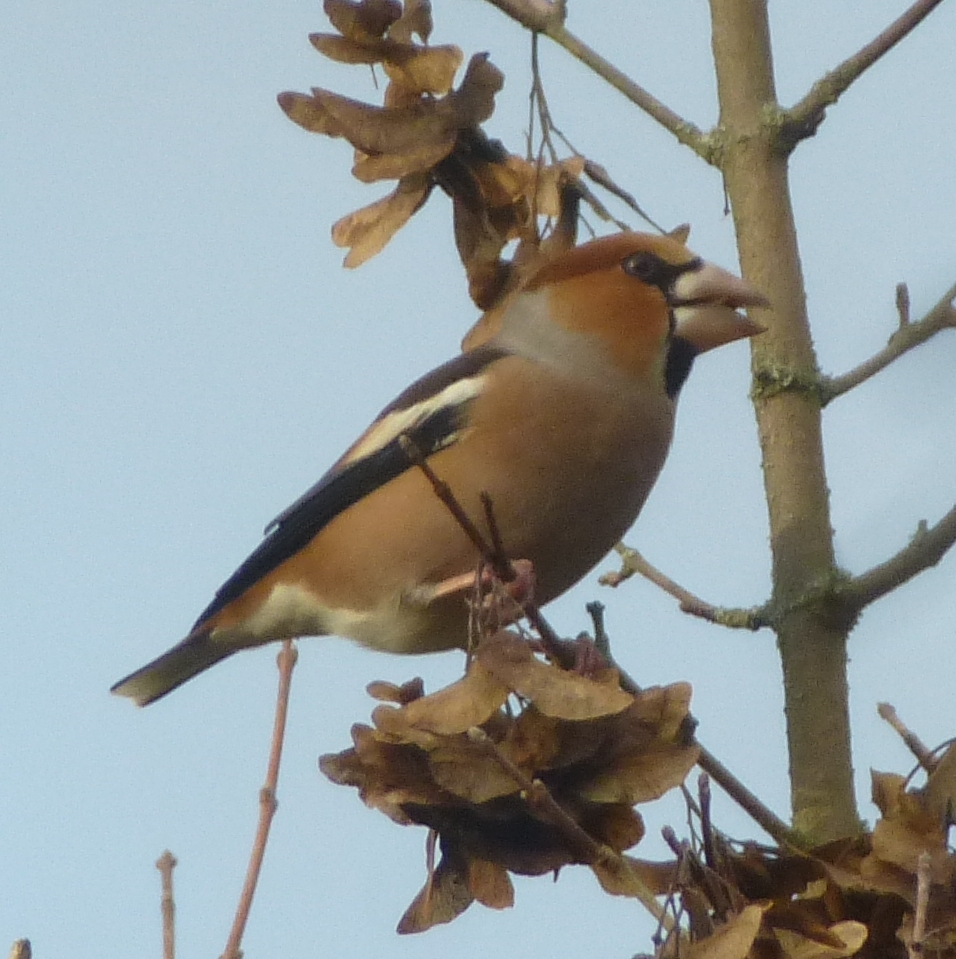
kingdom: Animalia
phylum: Chordata
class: Aves
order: Passeriformes
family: Fringillidae
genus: Coccothraustes
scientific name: Coccothraustes coccothraustes
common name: Hawfinch
